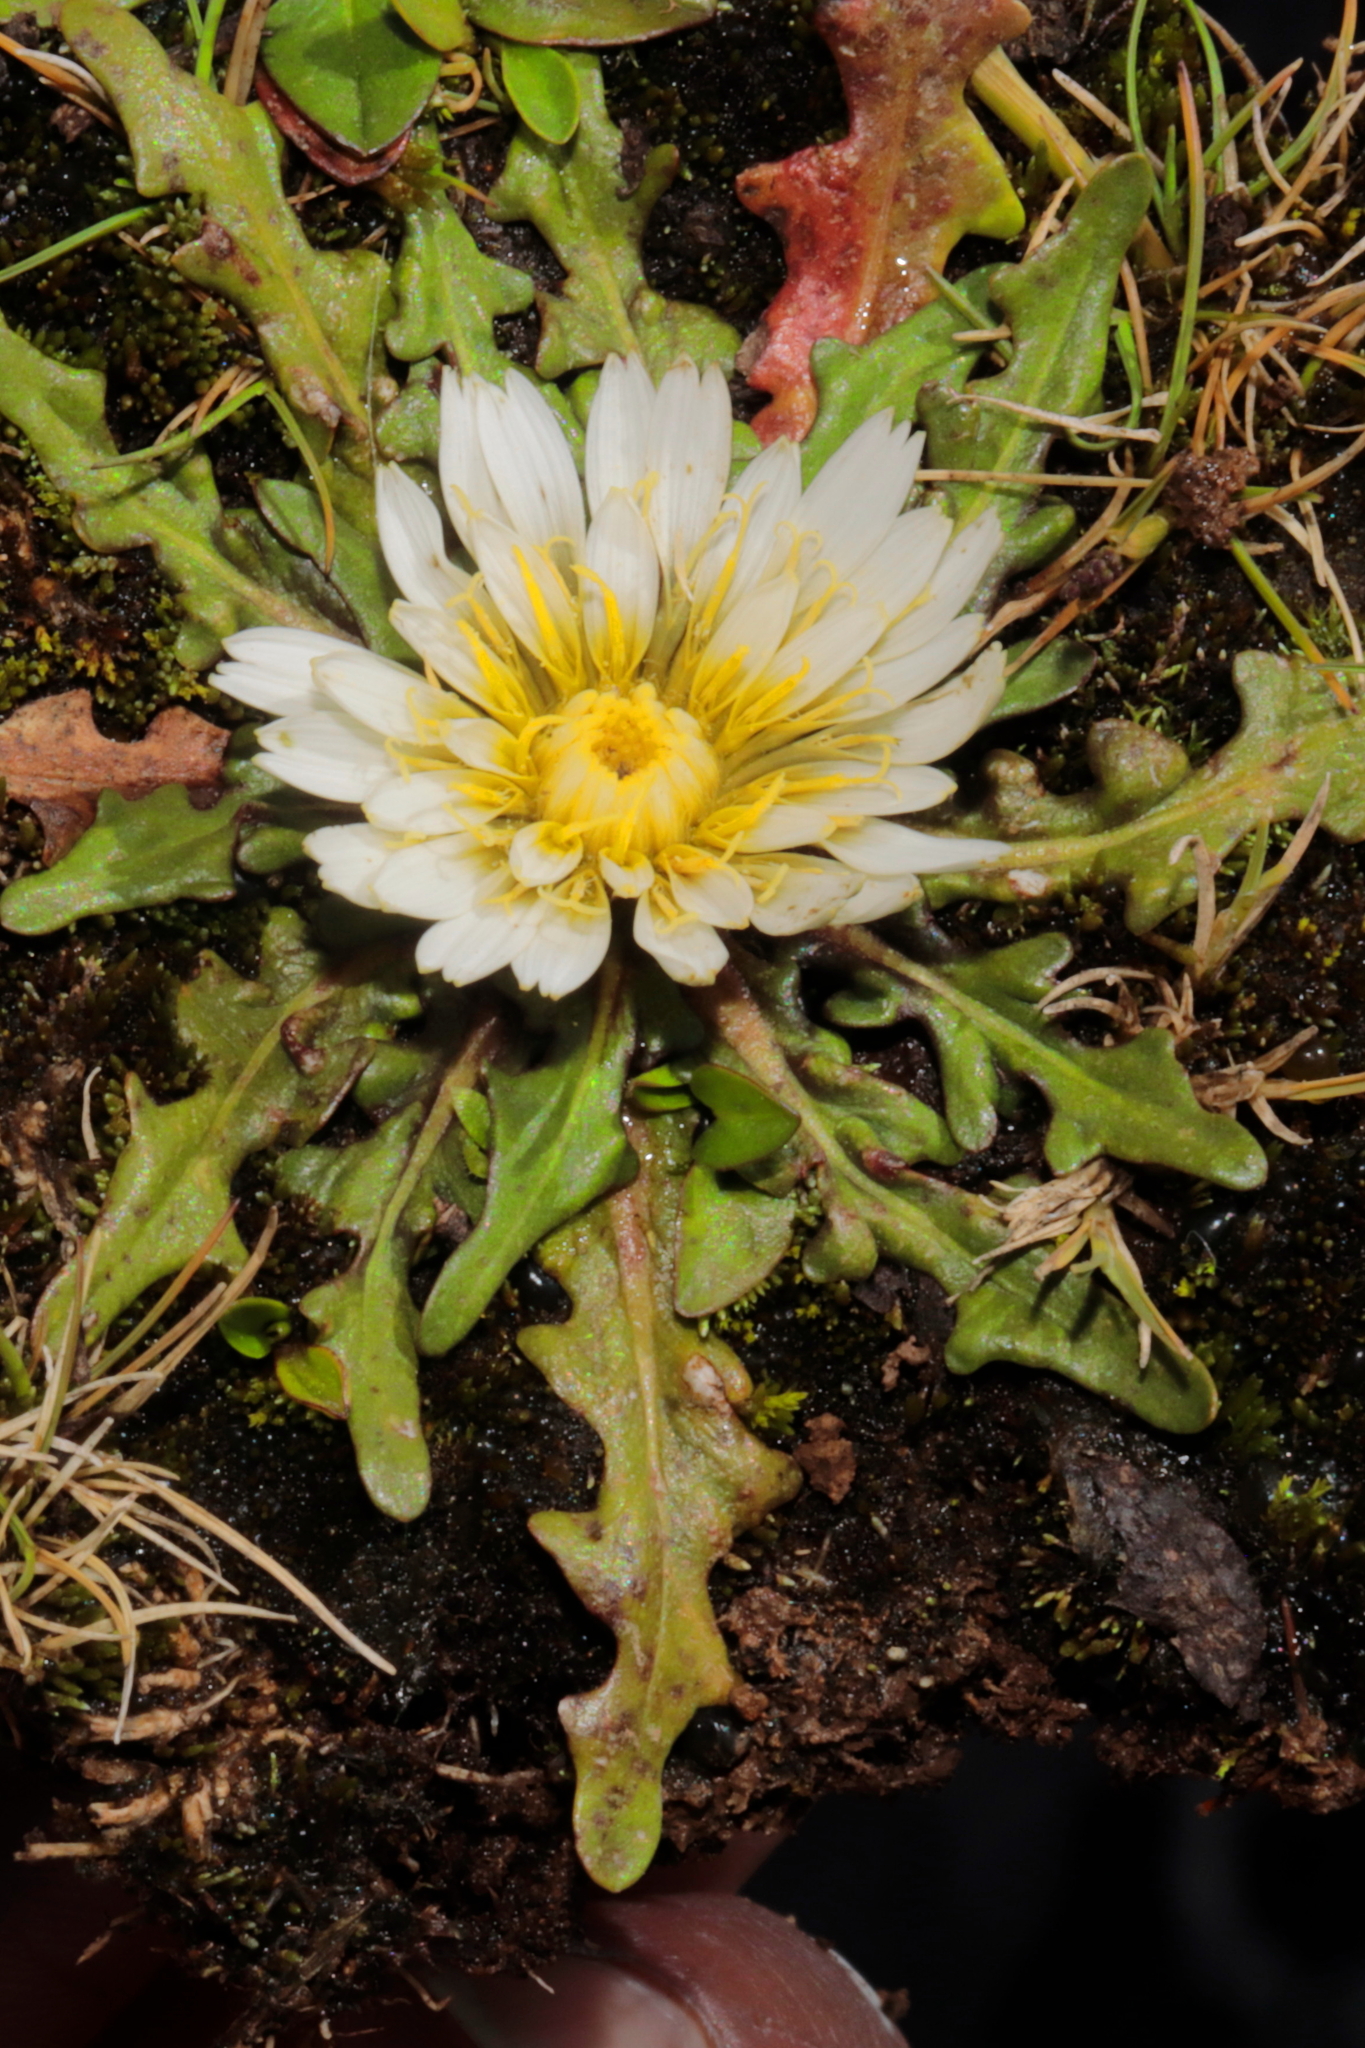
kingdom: Plantae
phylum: Tracheophyta
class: Magnoliopsida
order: Asterales
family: Asteraceae
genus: Hypochaeris
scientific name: Hypochaeris taraxacoides
